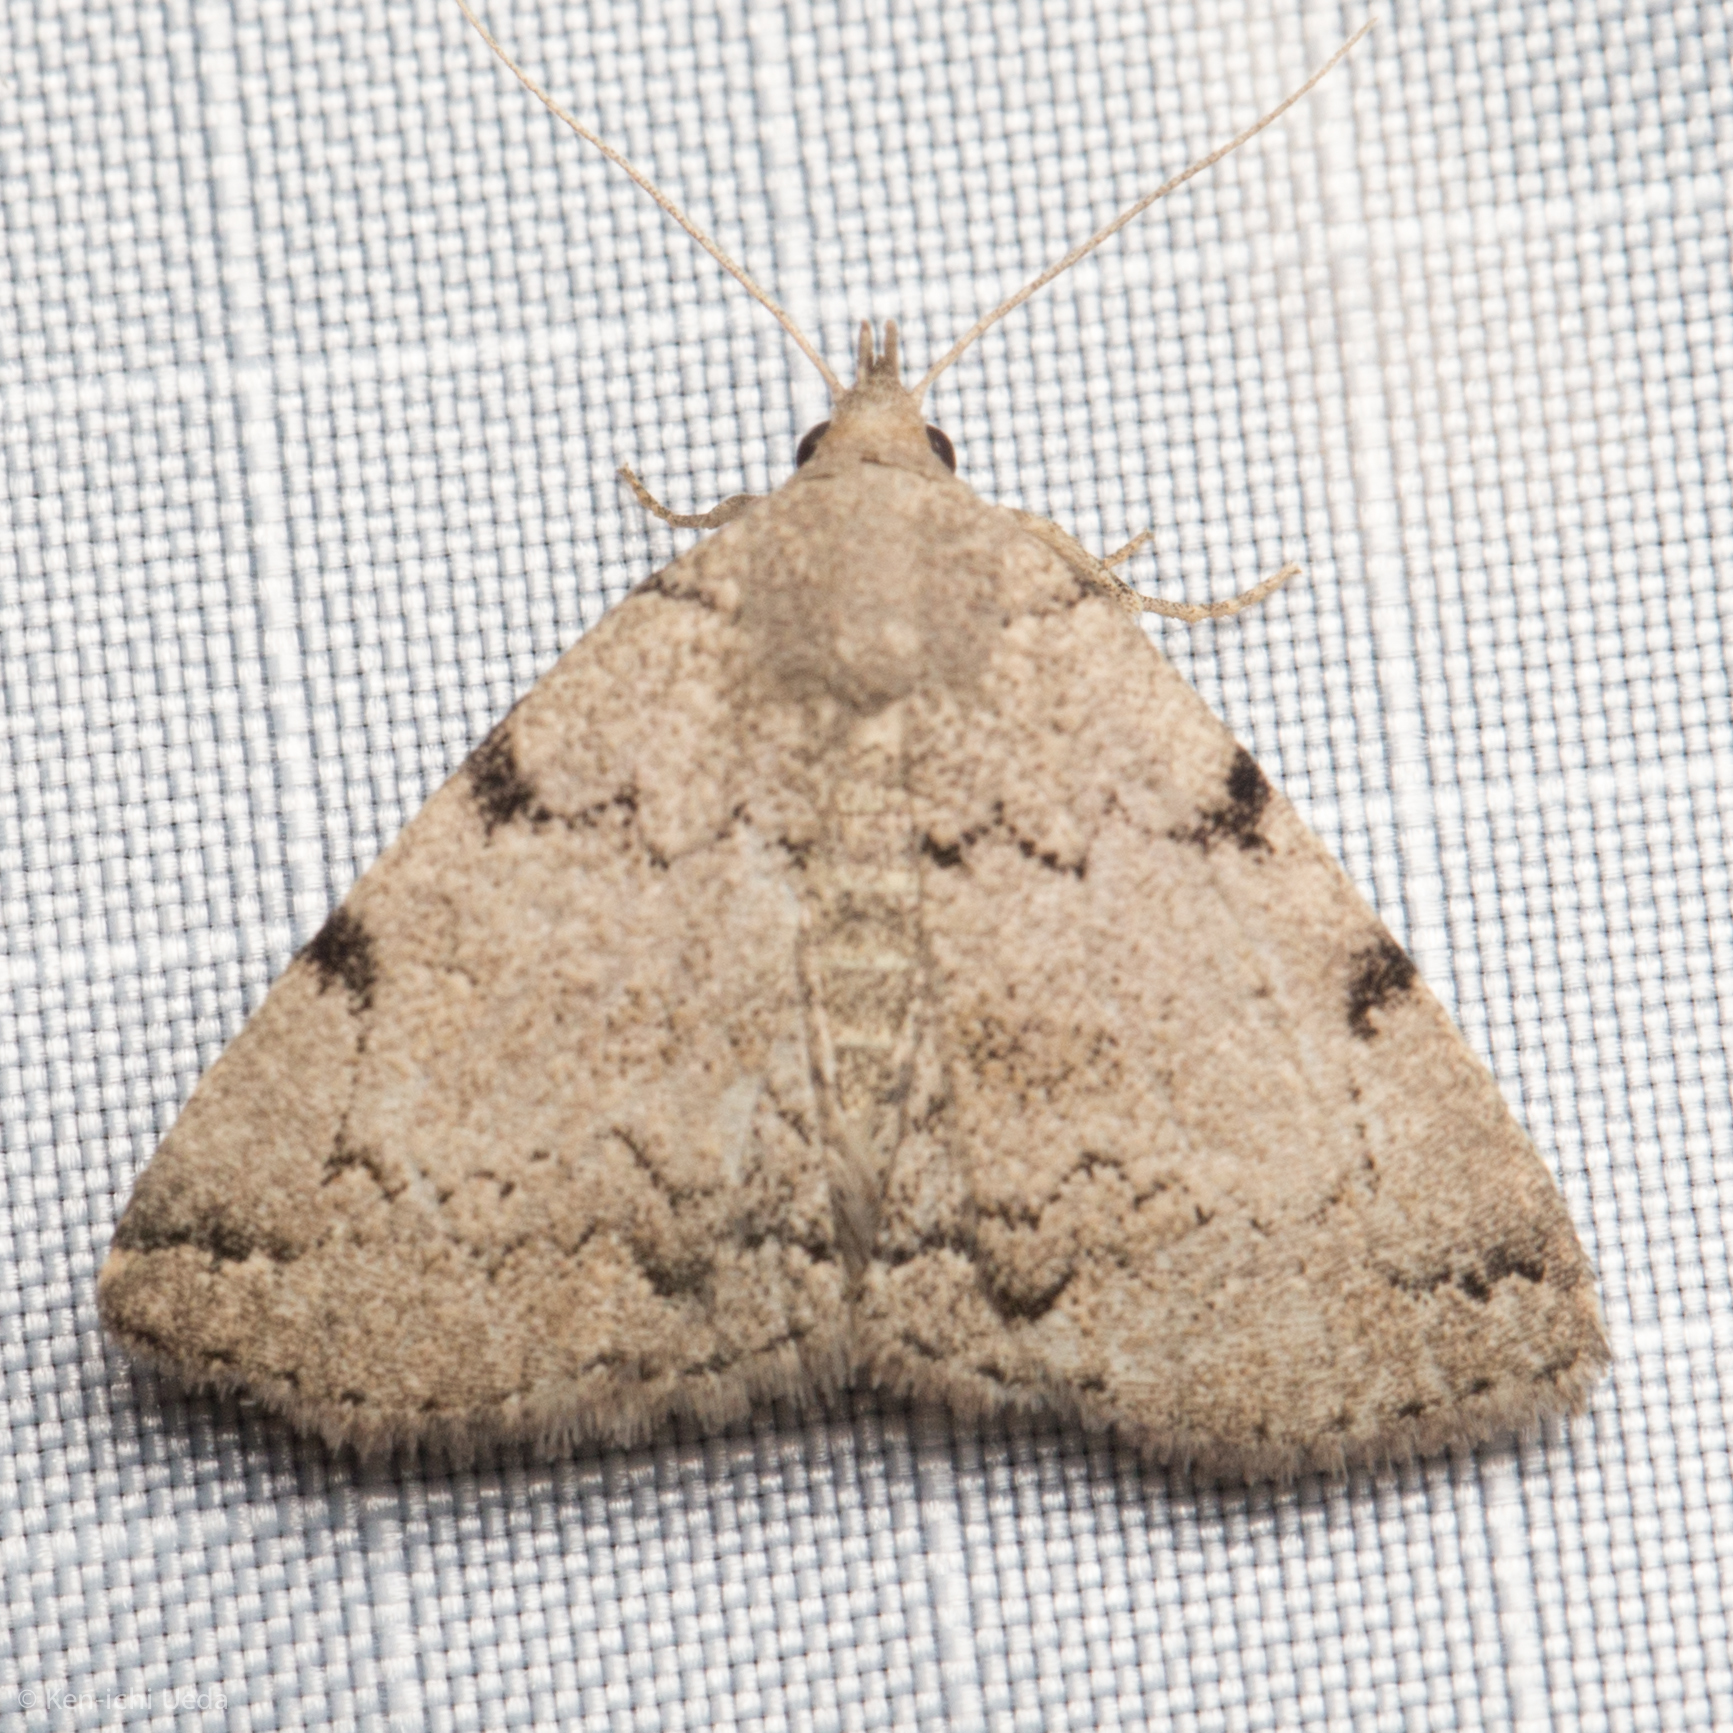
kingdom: Animalia
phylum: Arthropoda
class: Insecta
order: Lepidoptera
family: Erebidae
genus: Zanclognatha
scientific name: Zanclognatha theralis
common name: Flagged fan-foot
